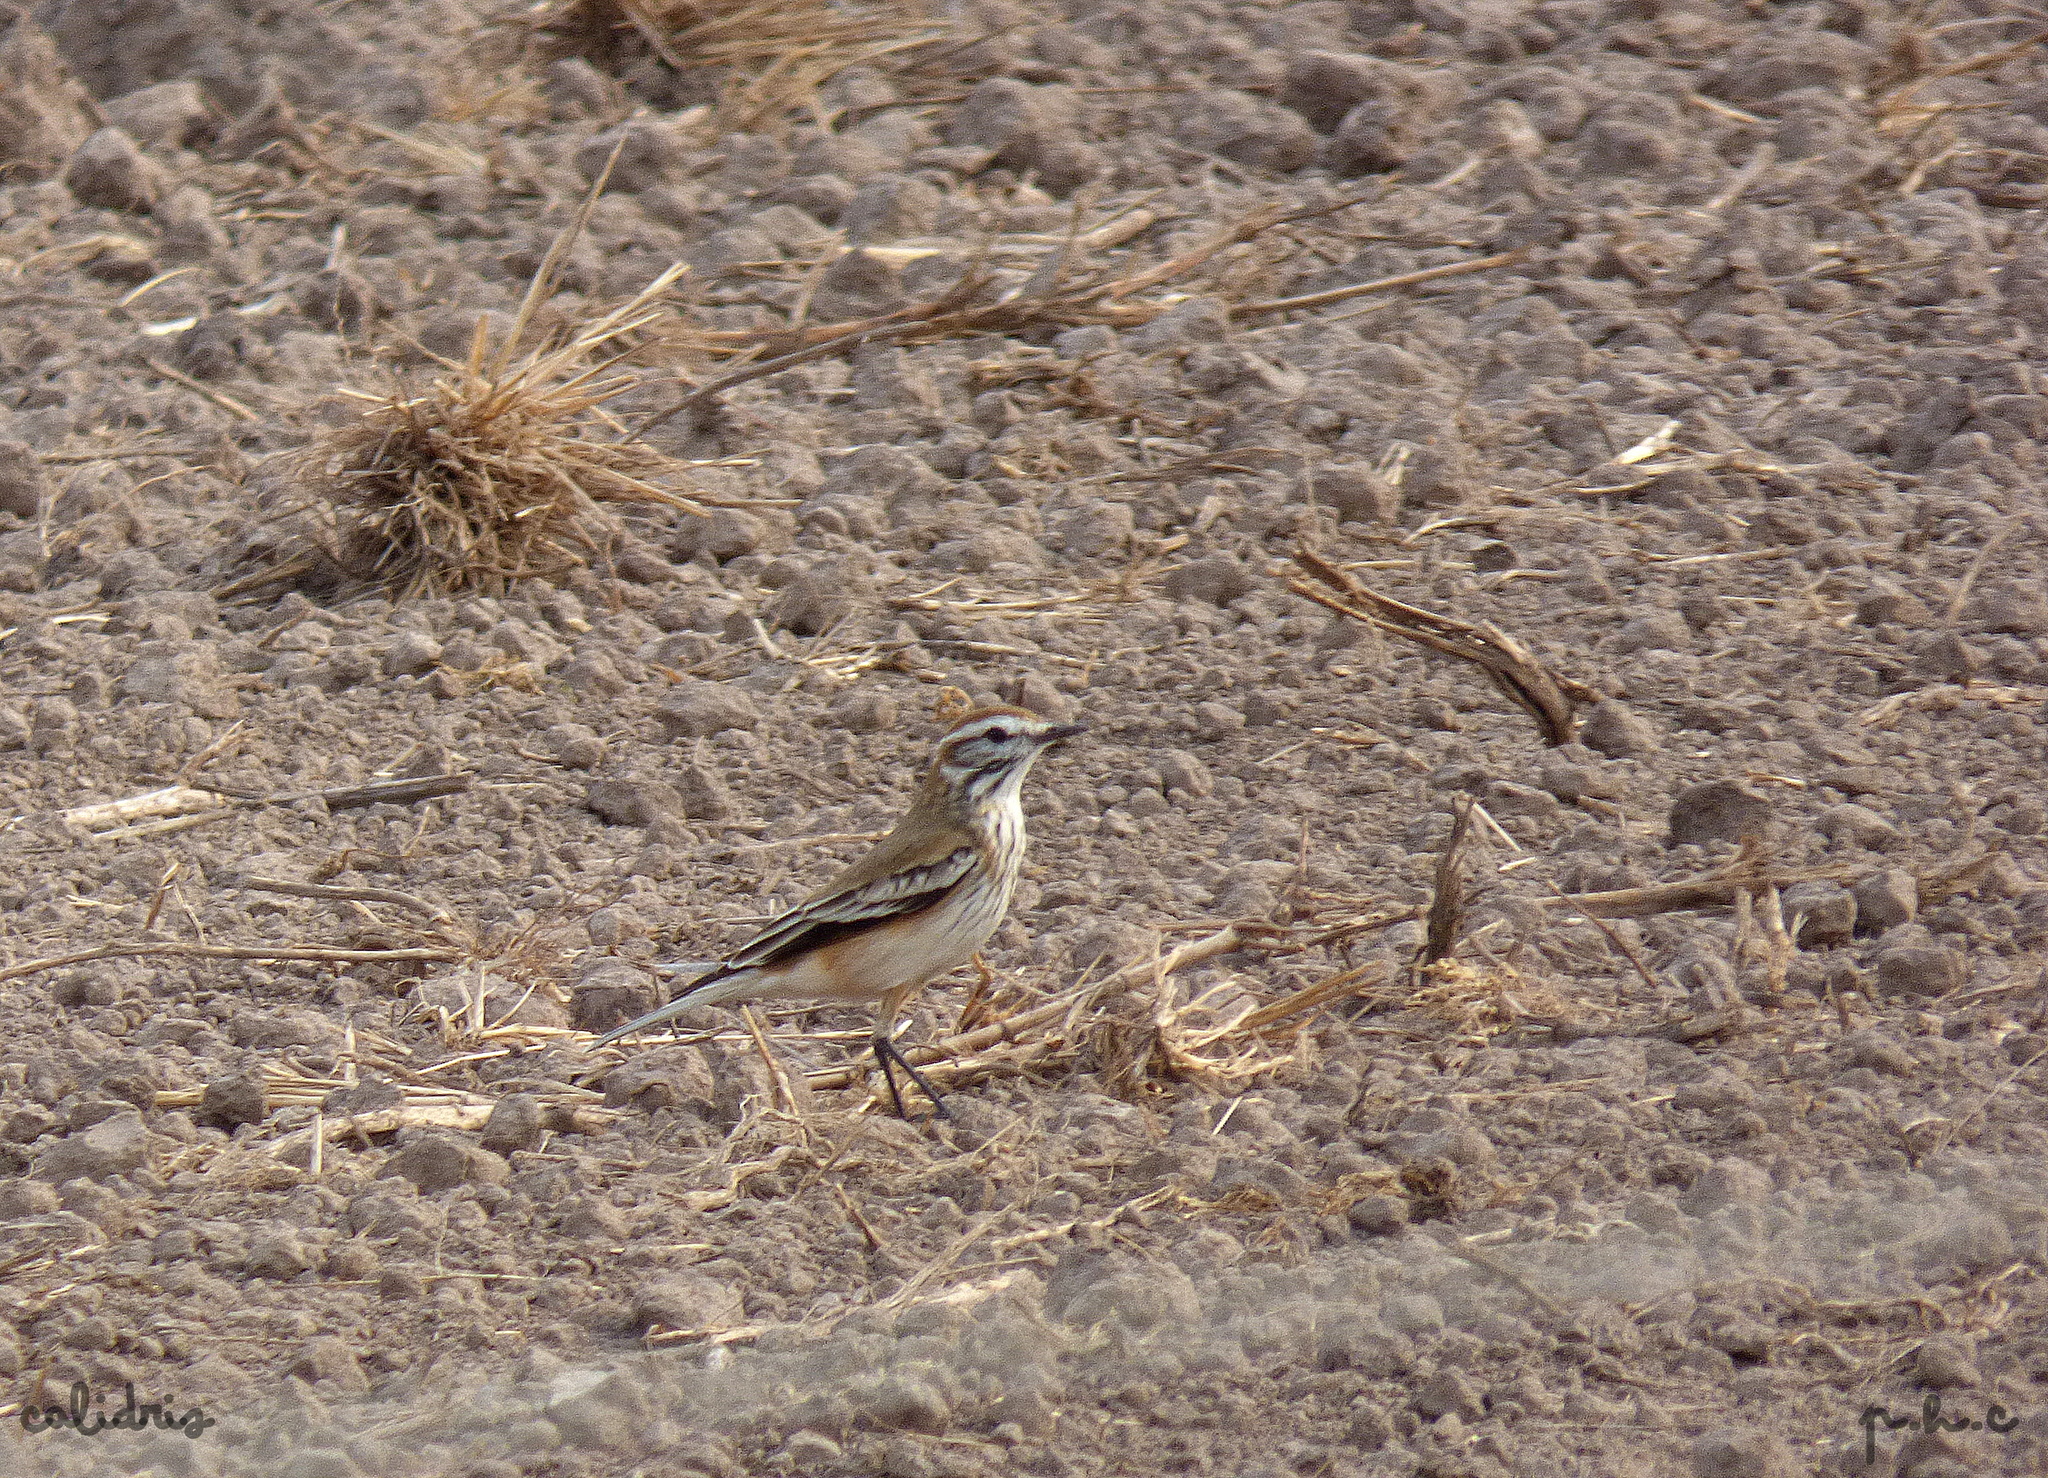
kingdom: Animalia
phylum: Chordata
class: Aves
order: Passeriformes
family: Tyrannidae
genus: Xolmis
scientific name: Xolmis rubetra
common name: Rusty-backed monjita
